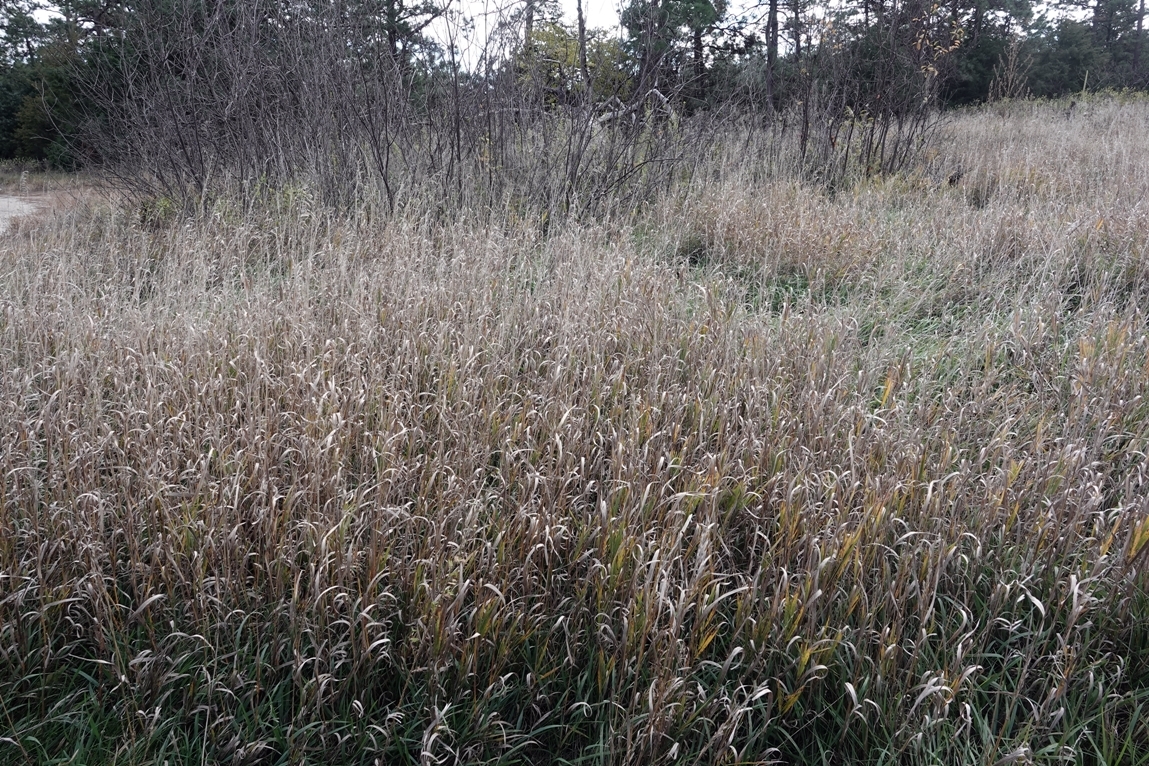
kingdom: Plantae
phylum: Tracheophyta
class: Liliopsida
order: Poales
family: Poaceae
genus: Bromus
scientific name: Bromus inermis
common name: Smooth brome
